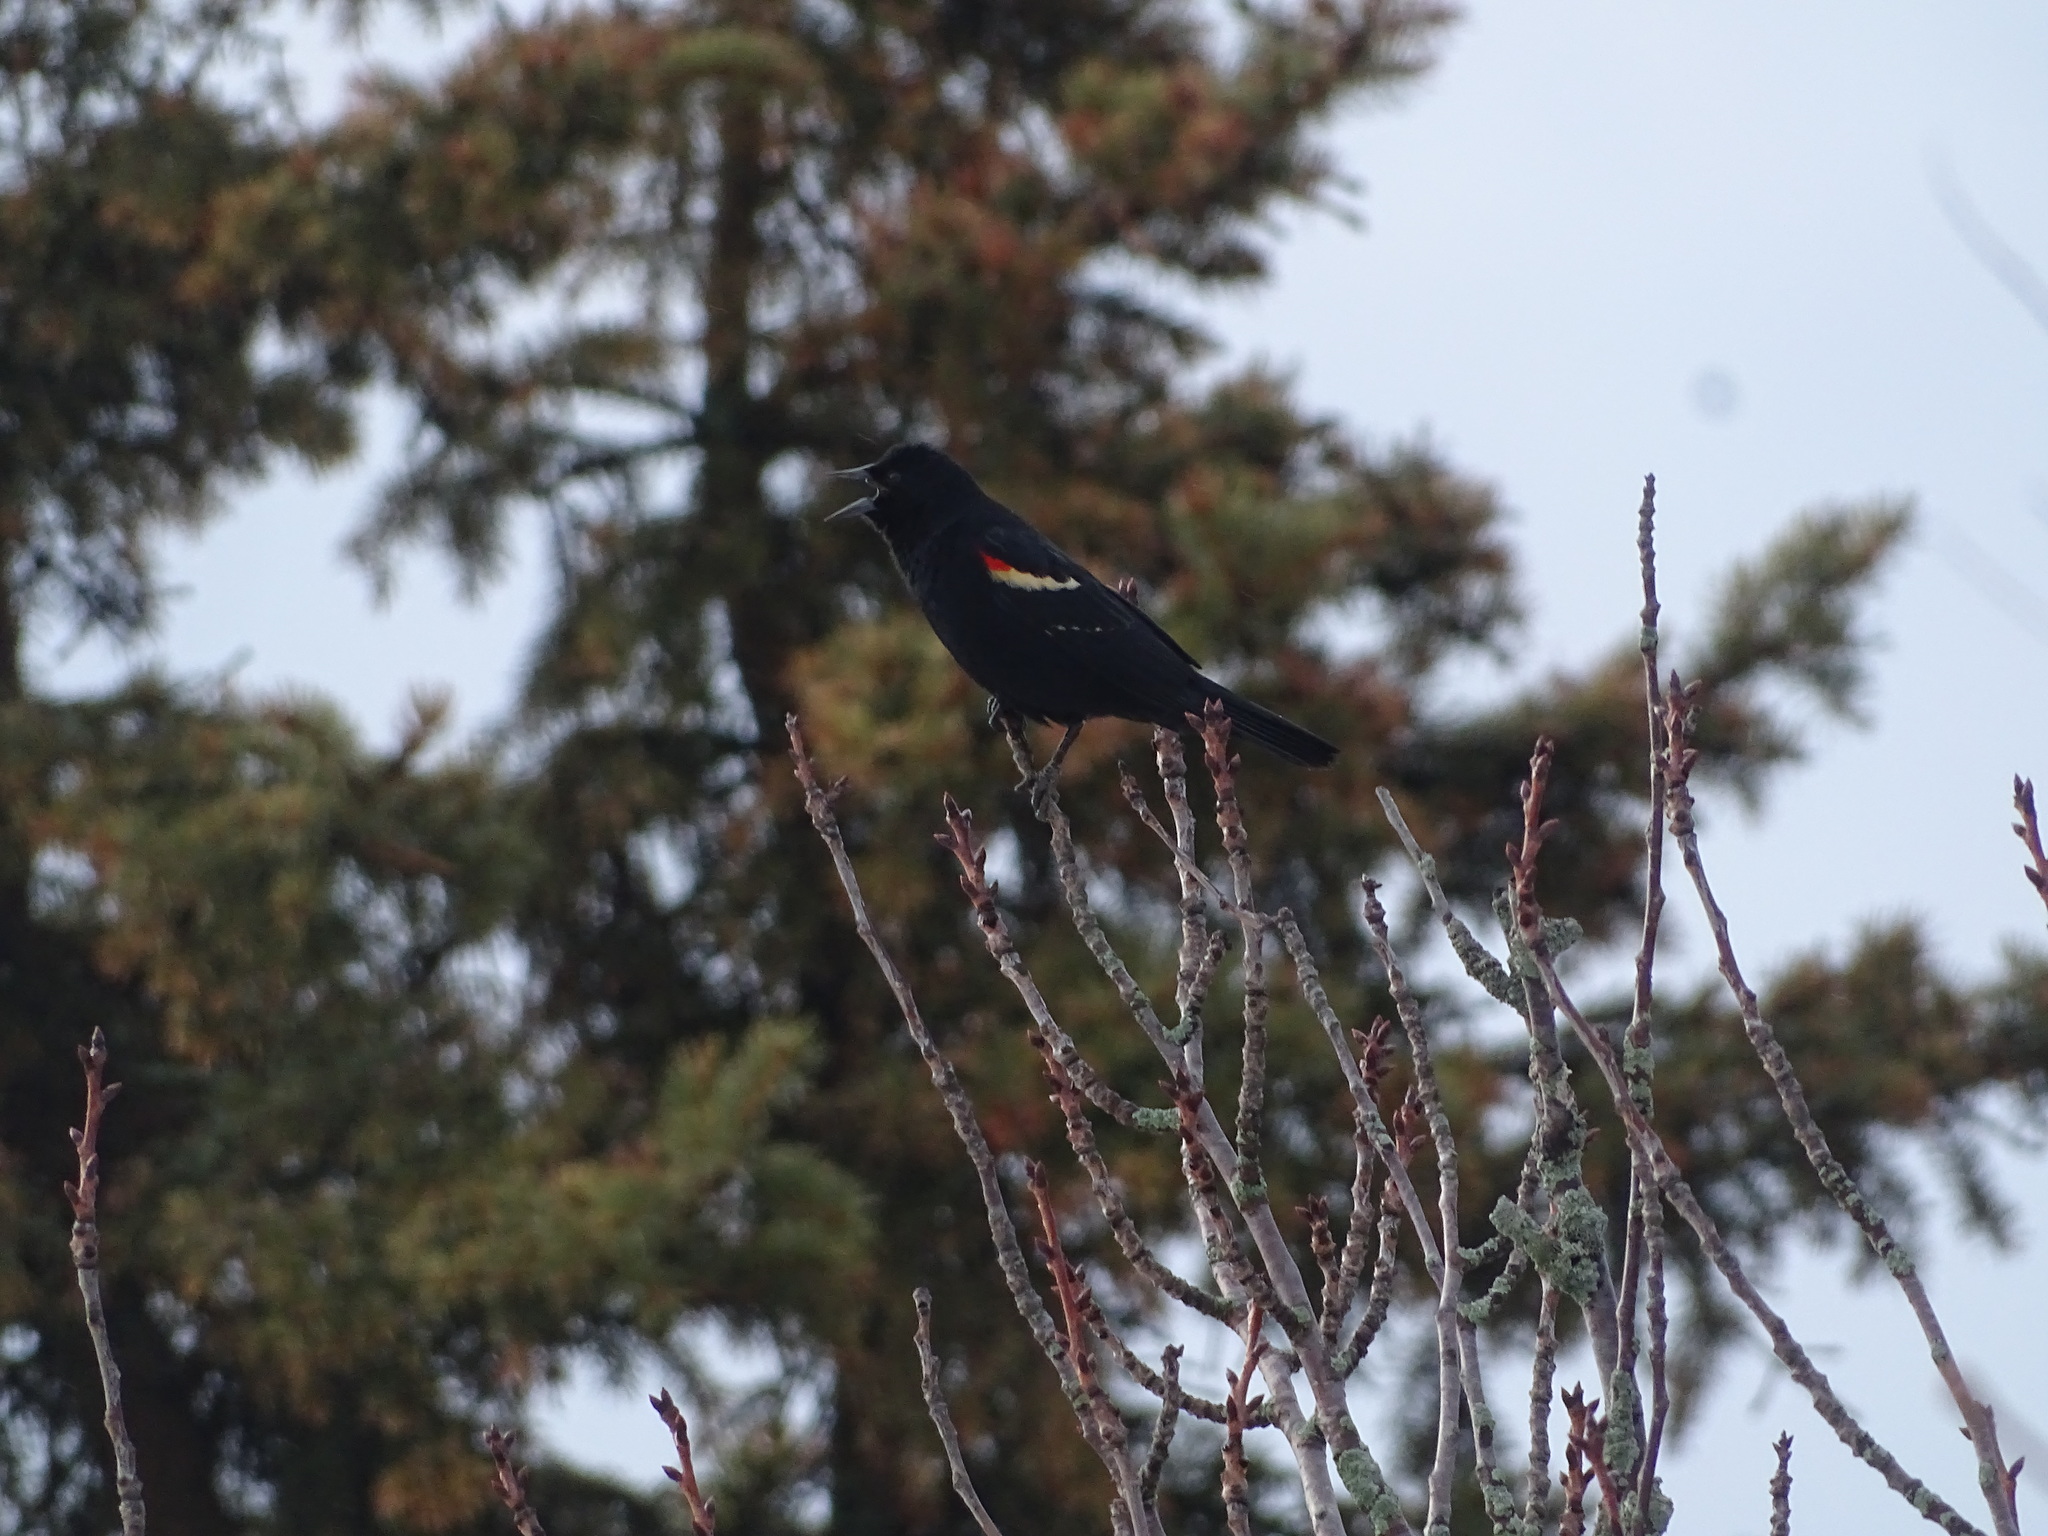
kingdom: Animalia
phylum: Chordata
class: Aves
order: Passeriformes
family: Icteridae
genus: Agelaius
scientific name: Agelaius phoeniceus
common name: Red-winged blackbird
